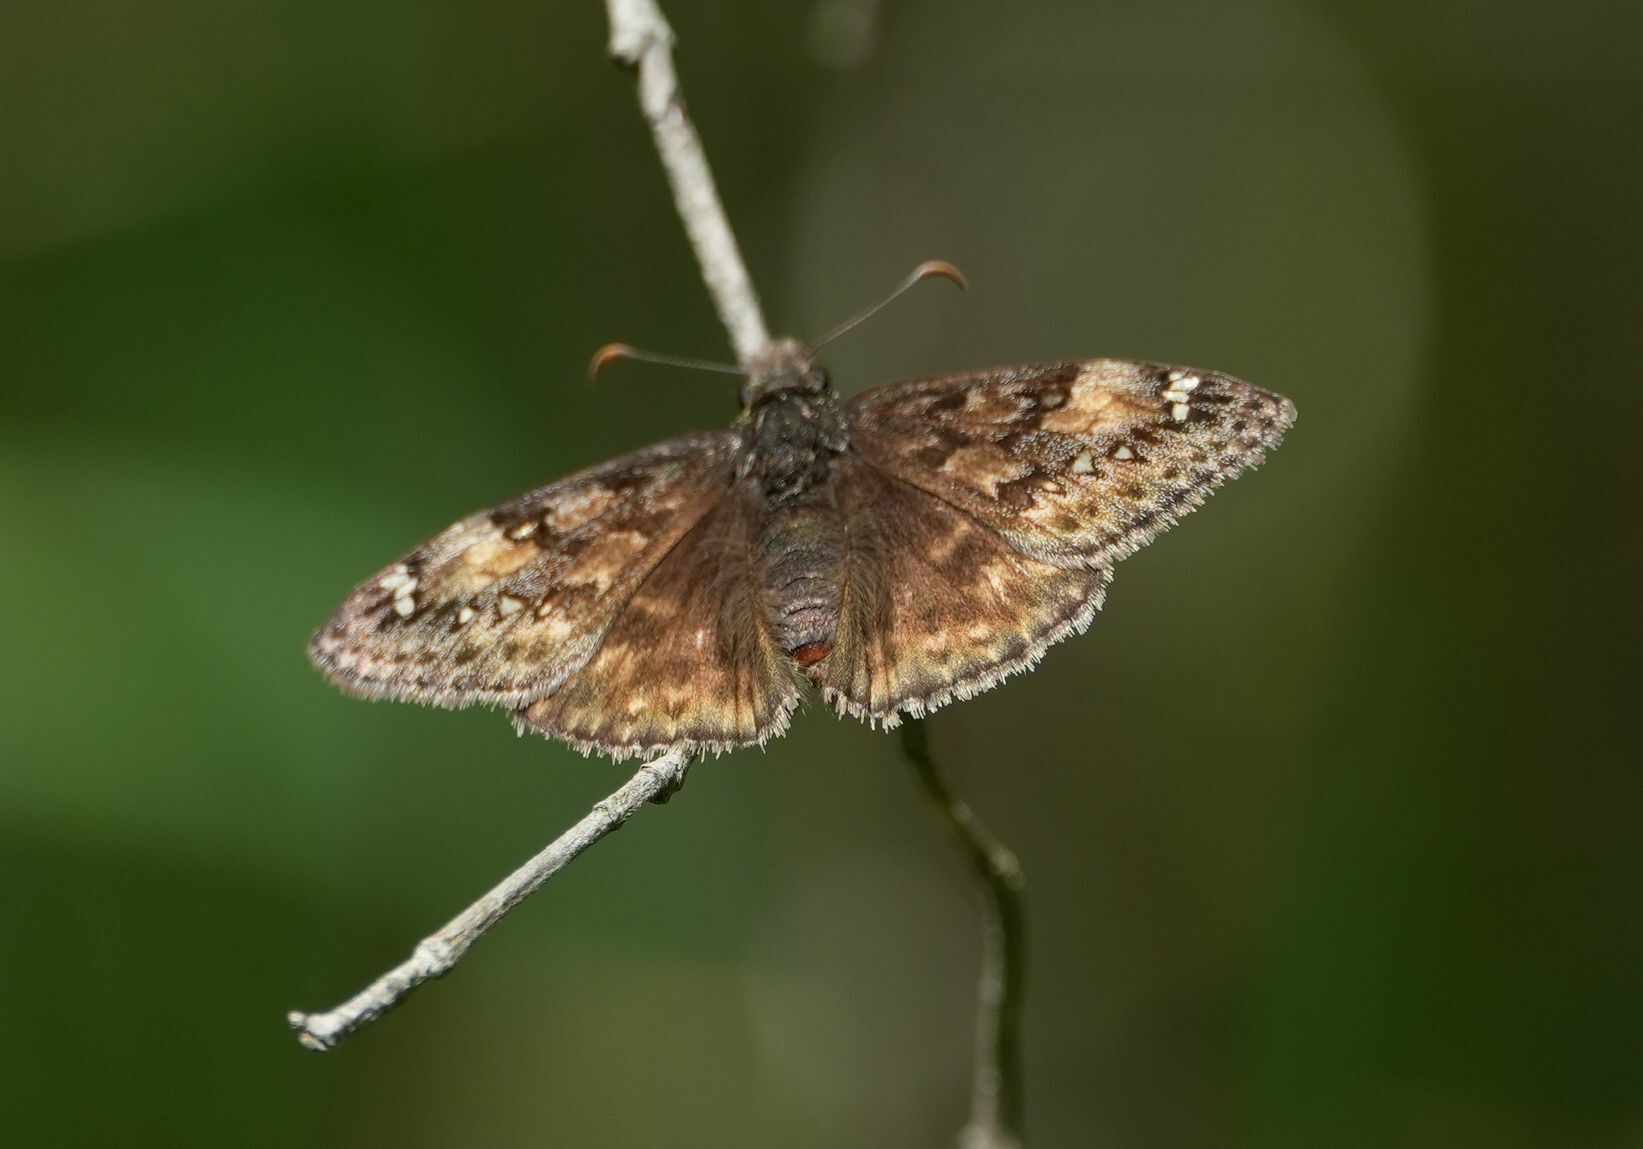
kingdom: Animalia
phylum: Arthropoda
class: Insecta
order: Lepidoptera
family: Hesperiidae
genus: Erynnis
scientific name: Erynnis juvenalis
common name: Juvenal's duskywing
